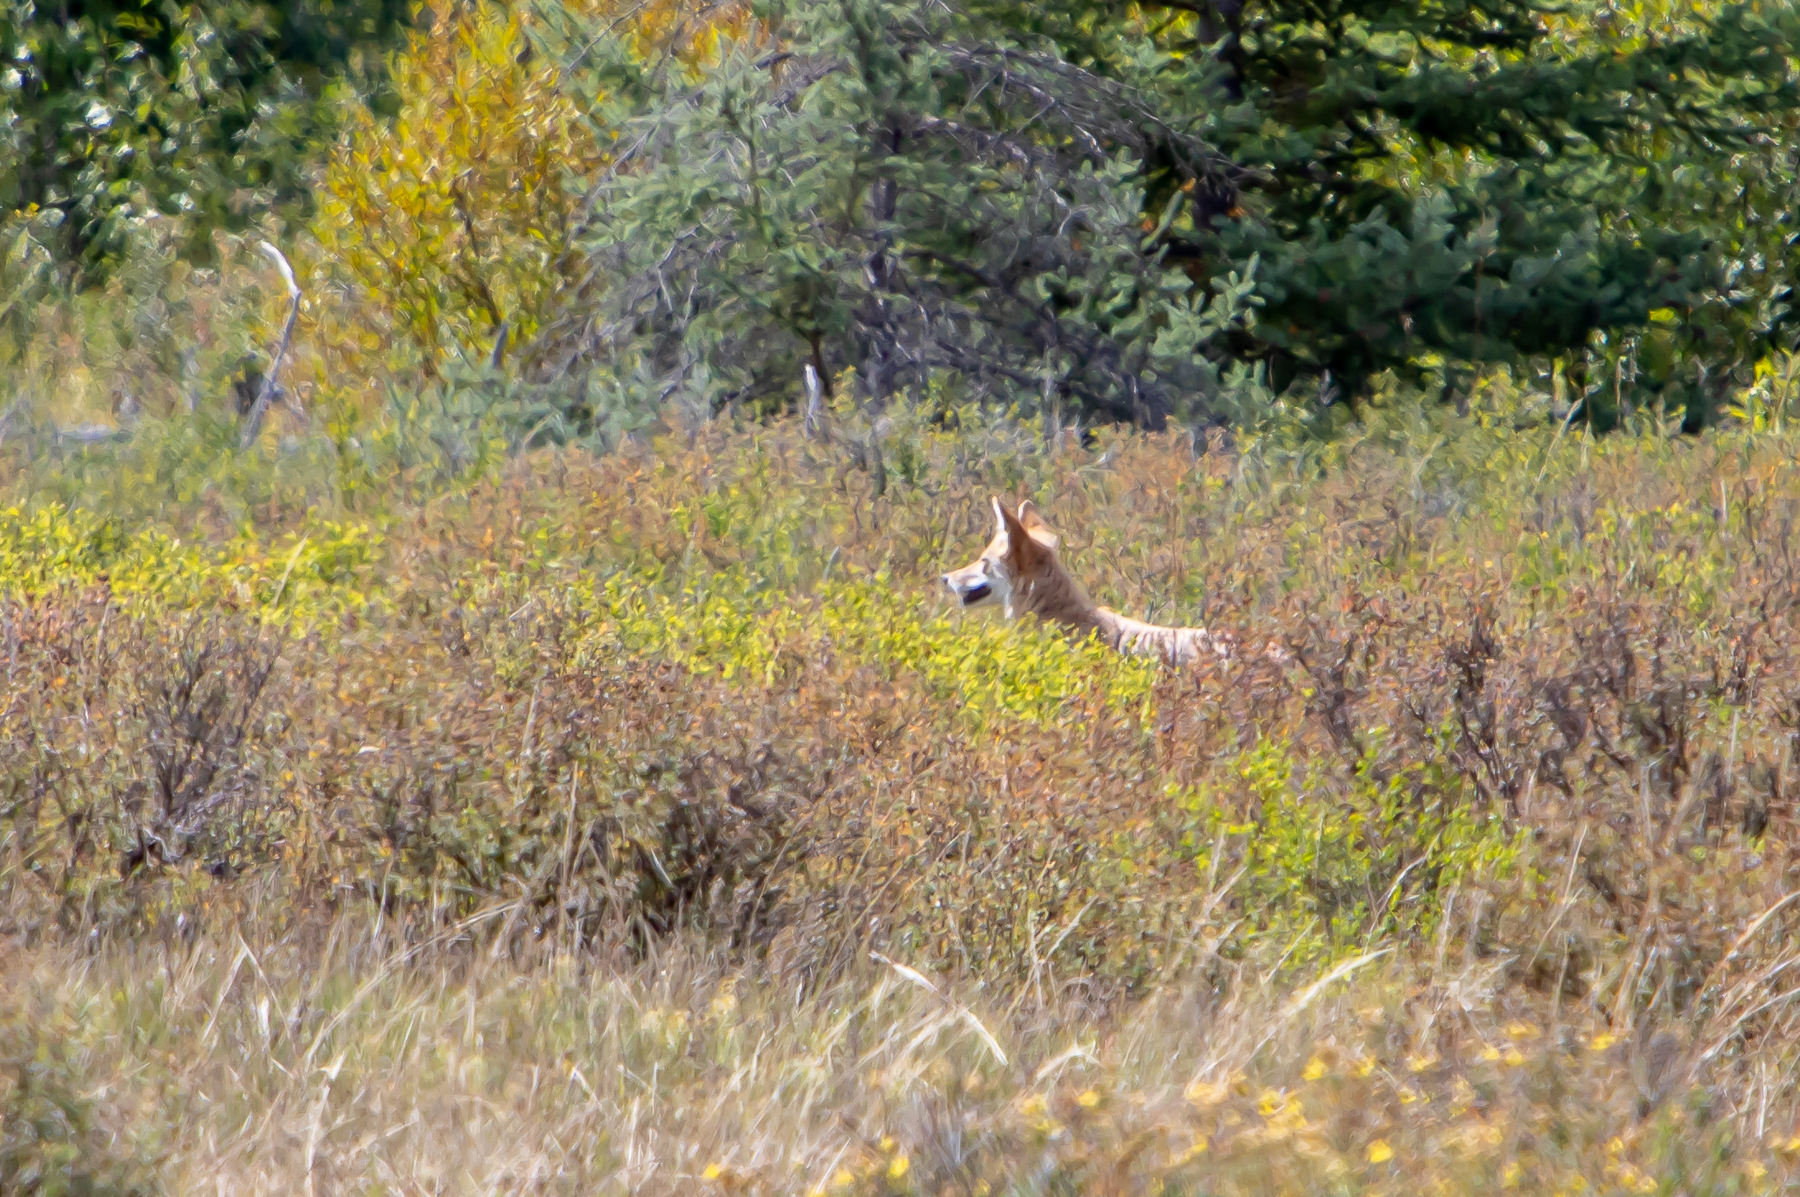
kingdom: Animalia
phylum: Chordata
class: Mammalia
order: Carnivora
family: Canidae
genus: Canis
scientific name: Canis latrans
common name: Coyote
